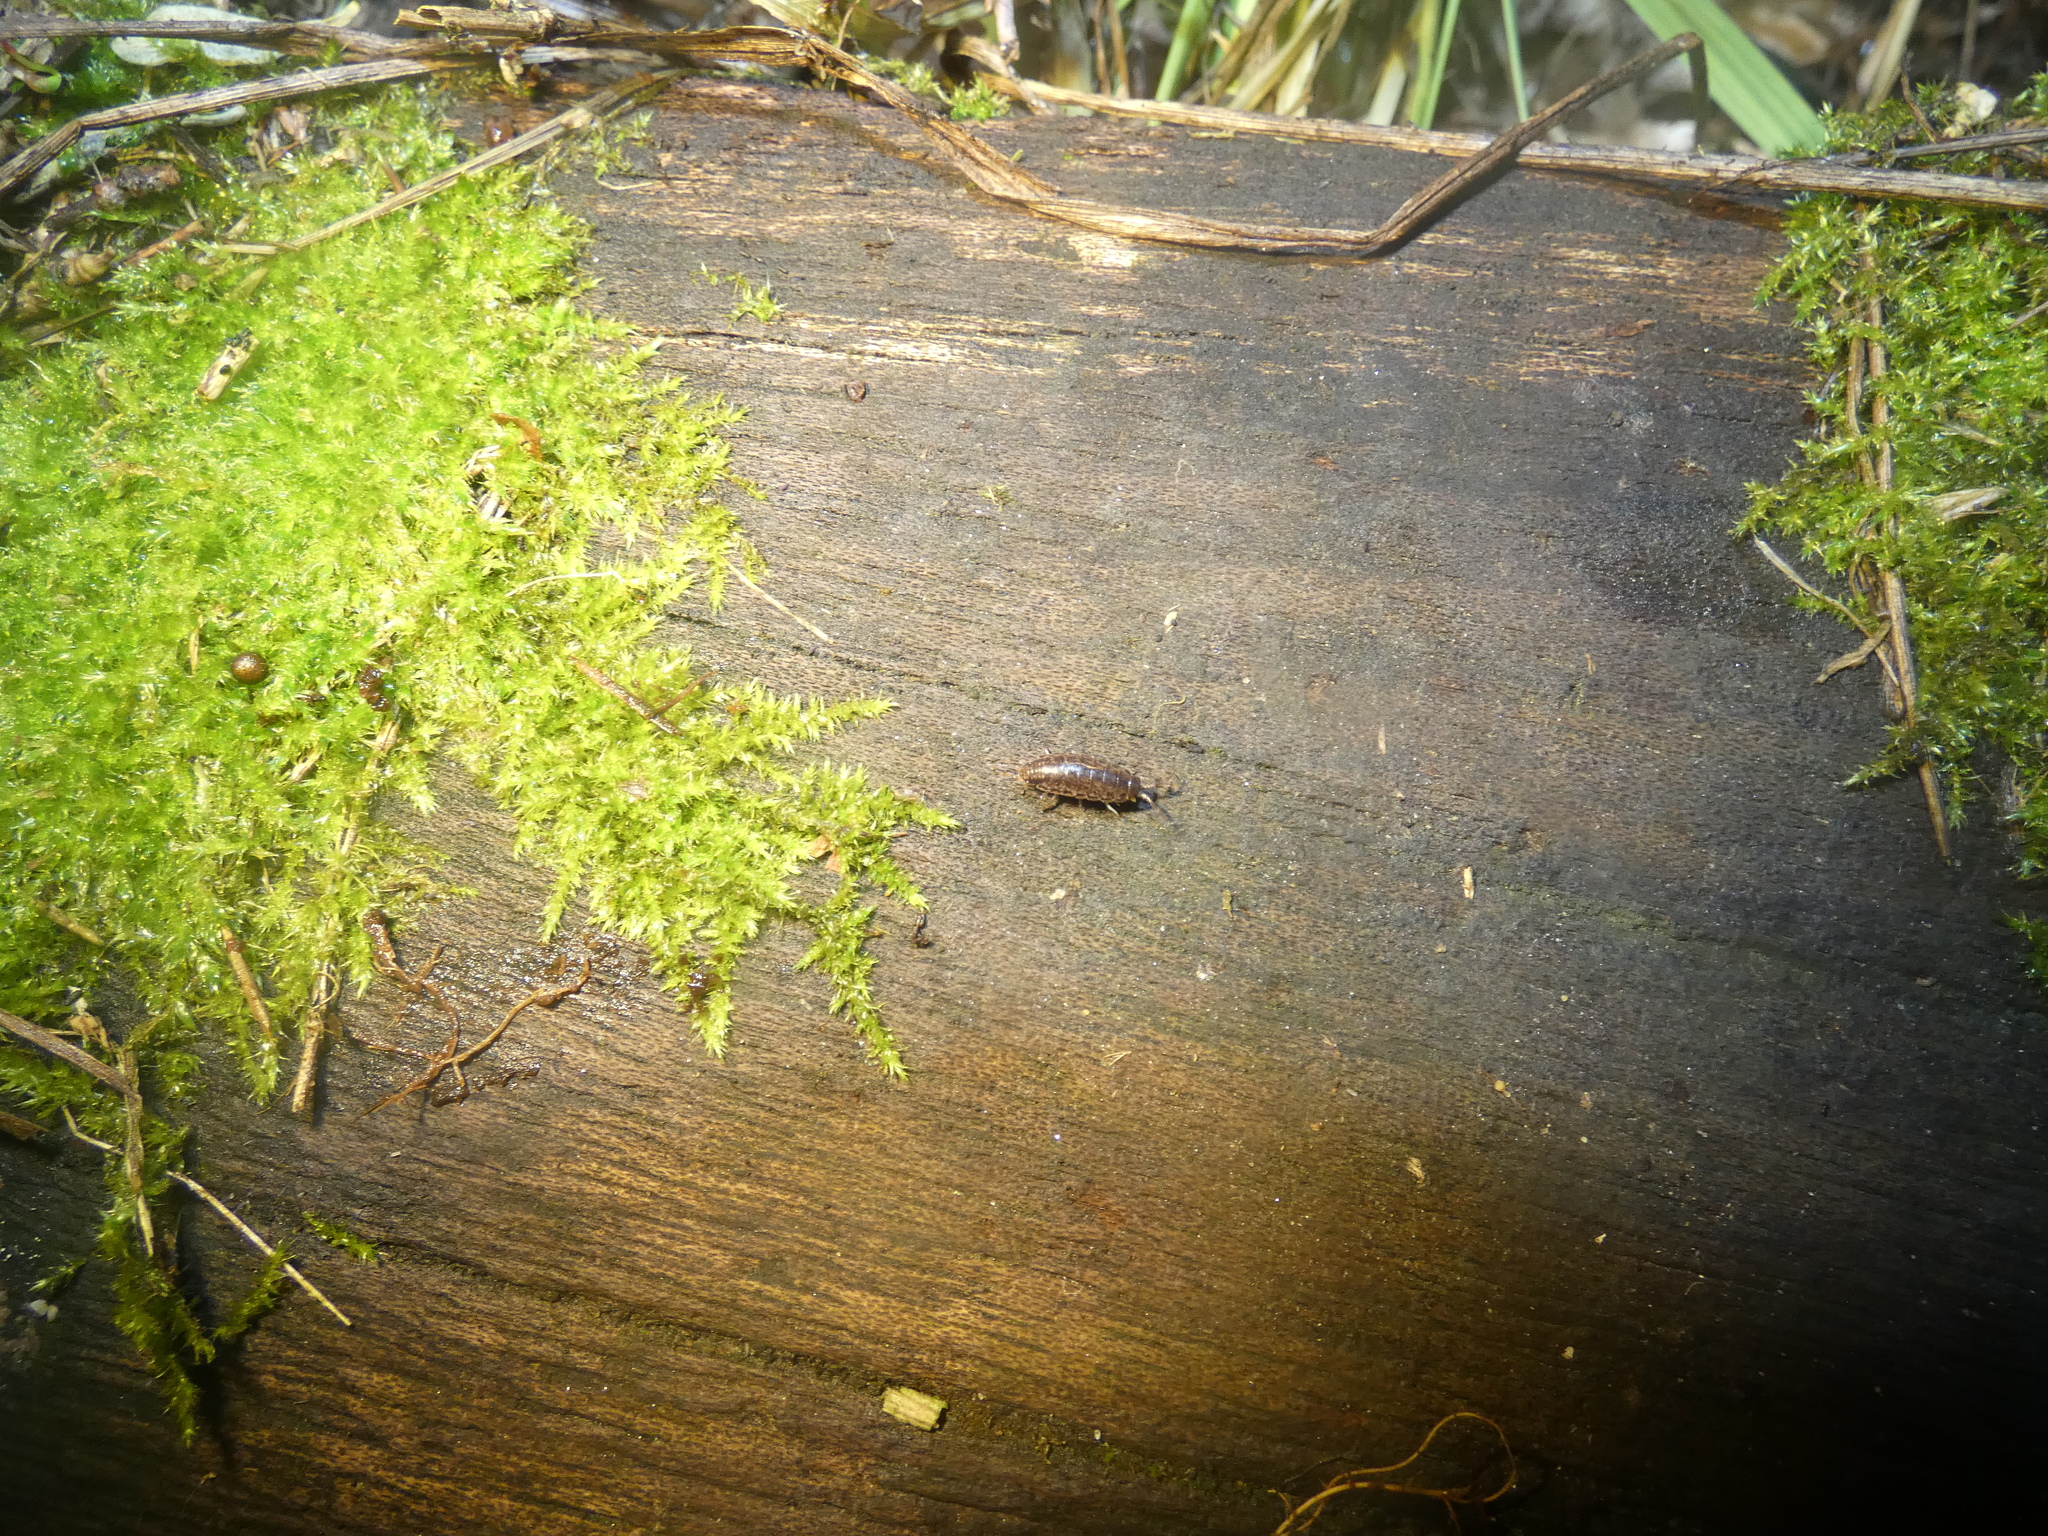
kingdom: Animalia
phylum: Arthropoda
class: Malacostraca
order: Isopoda
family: Philosciidae
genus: Chaetophiloscia
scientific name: Chaetophiloscia elongata
